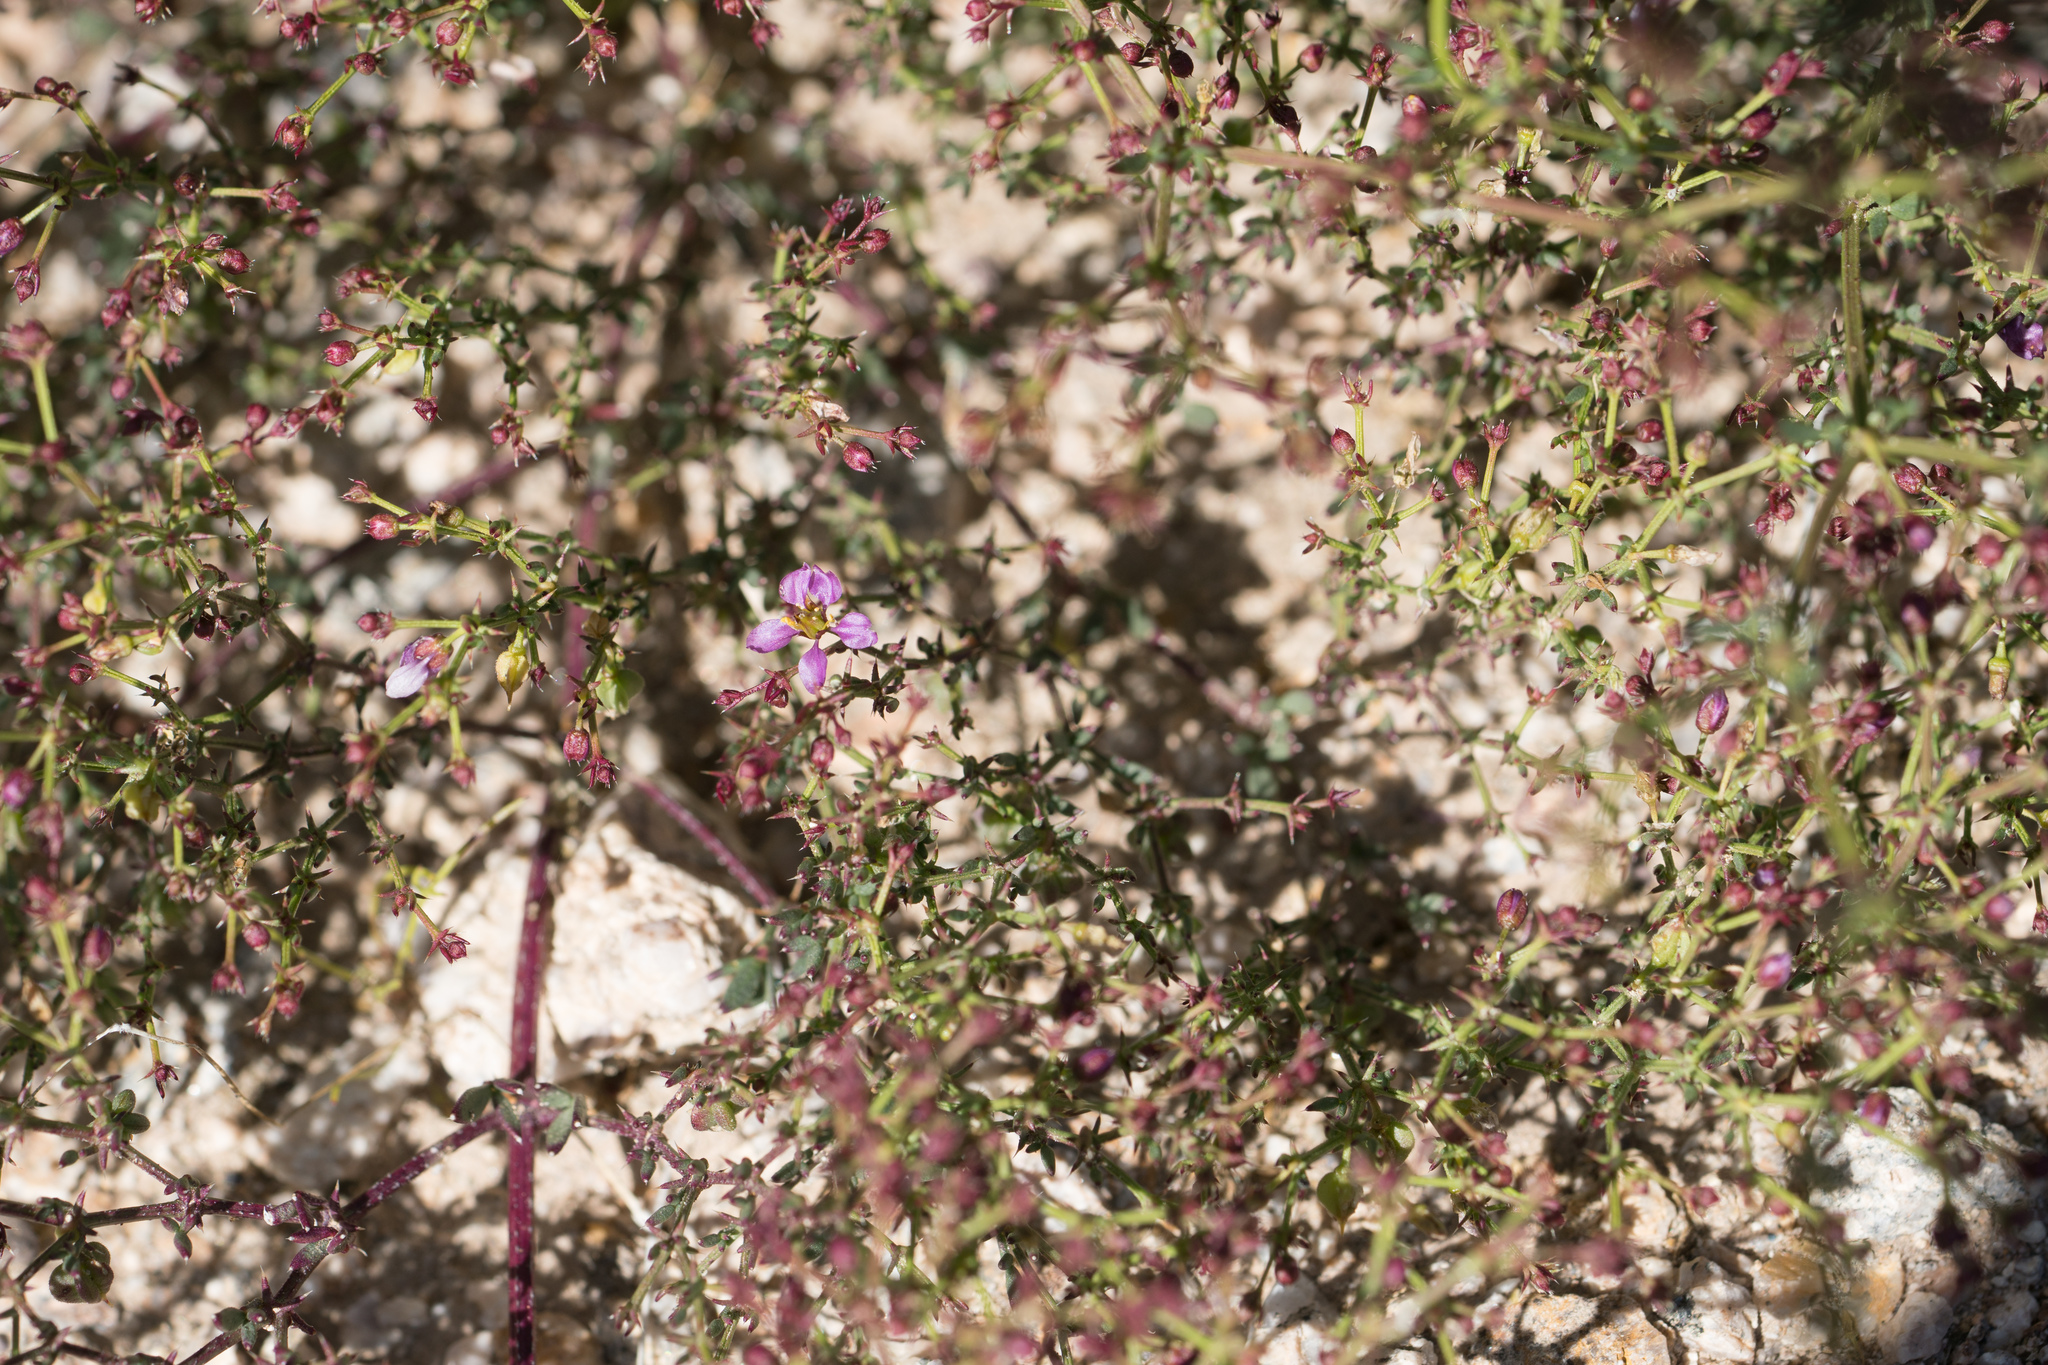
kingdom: Plantae
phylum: Tracheophyta
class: Magnoliopsida
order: Zygophyllales
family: Zygophyllaceae
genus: Fagonia
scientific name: Fagonia laevis
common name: California fagonbush
